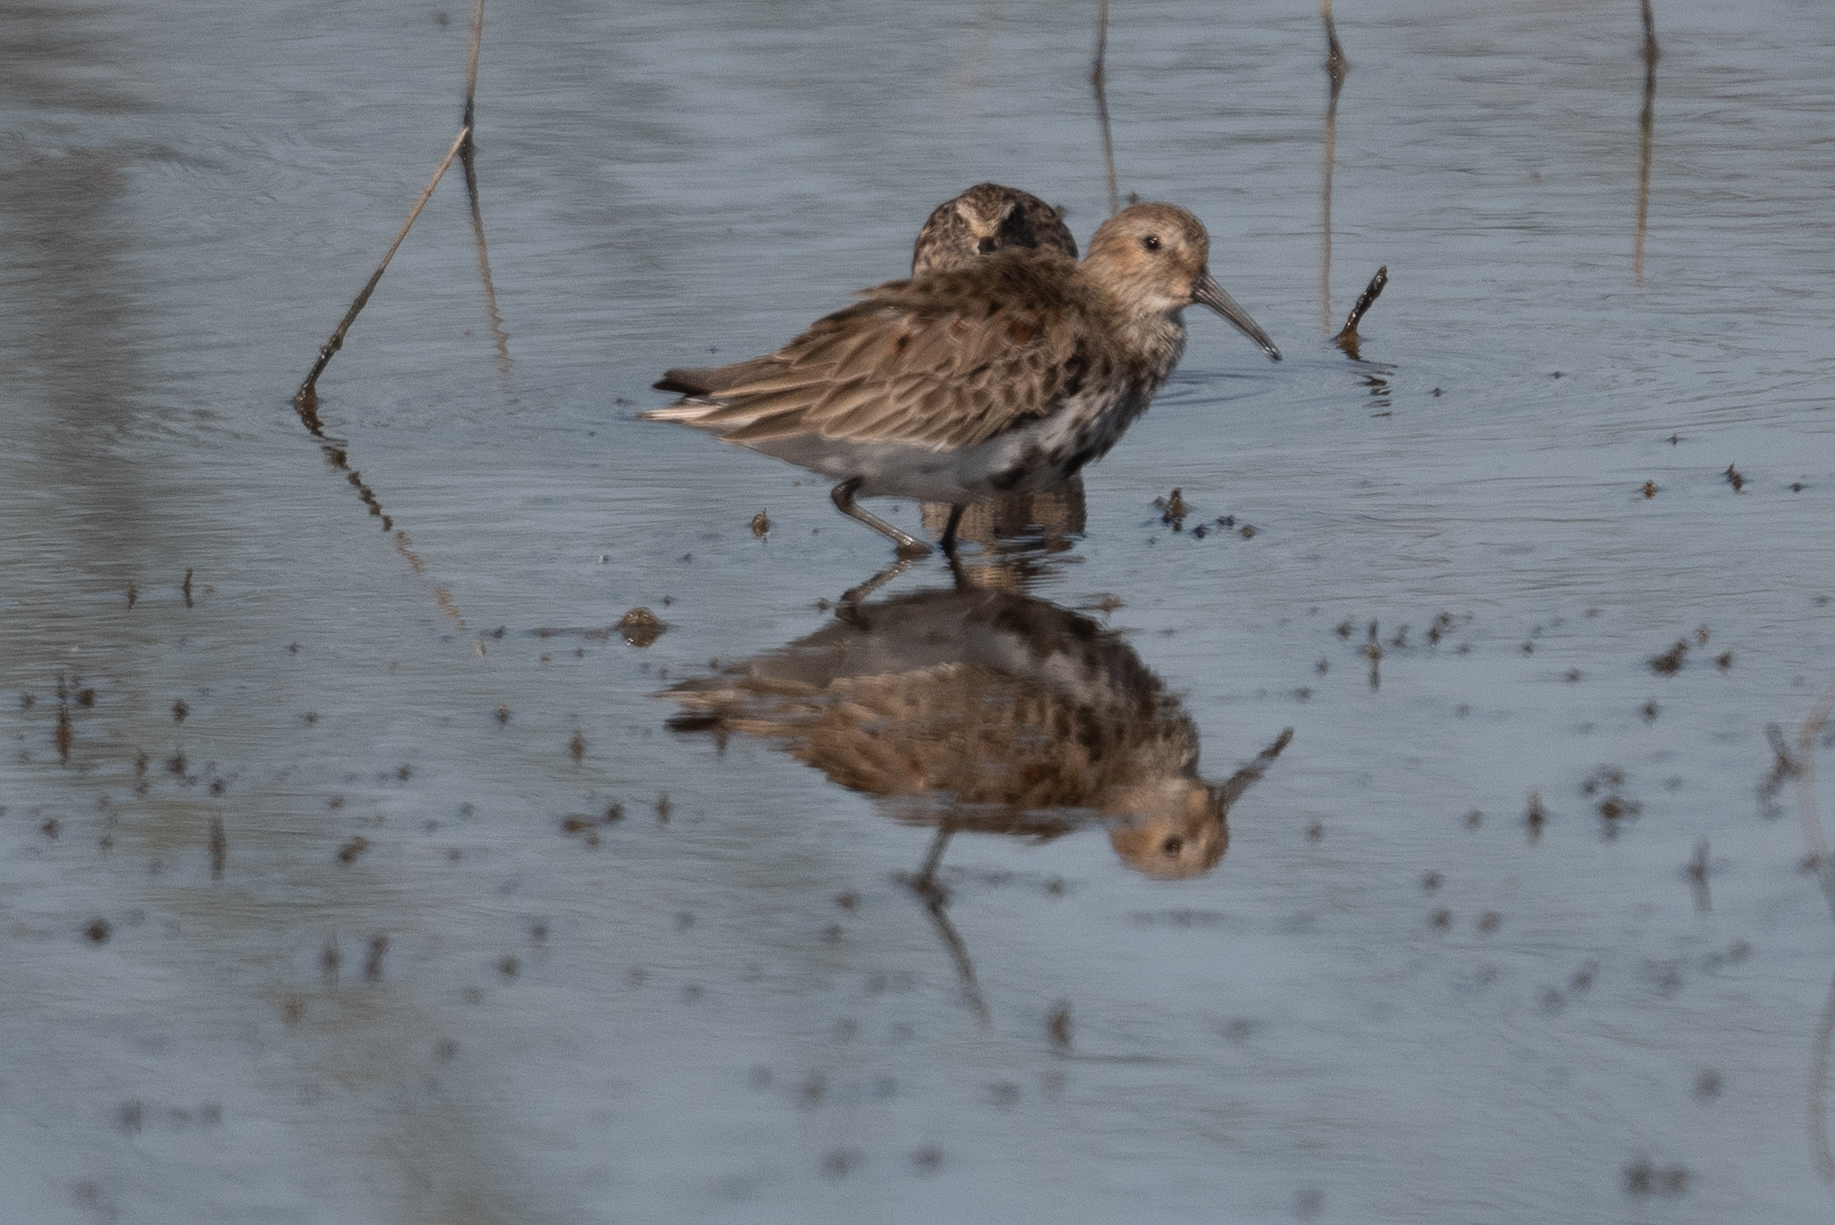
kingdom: Animalia
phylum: Chordata
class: Aves
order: Charadriiformes
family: Scolopacidae
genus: Calidris
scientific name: Calidris alpina
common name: Dunlin
